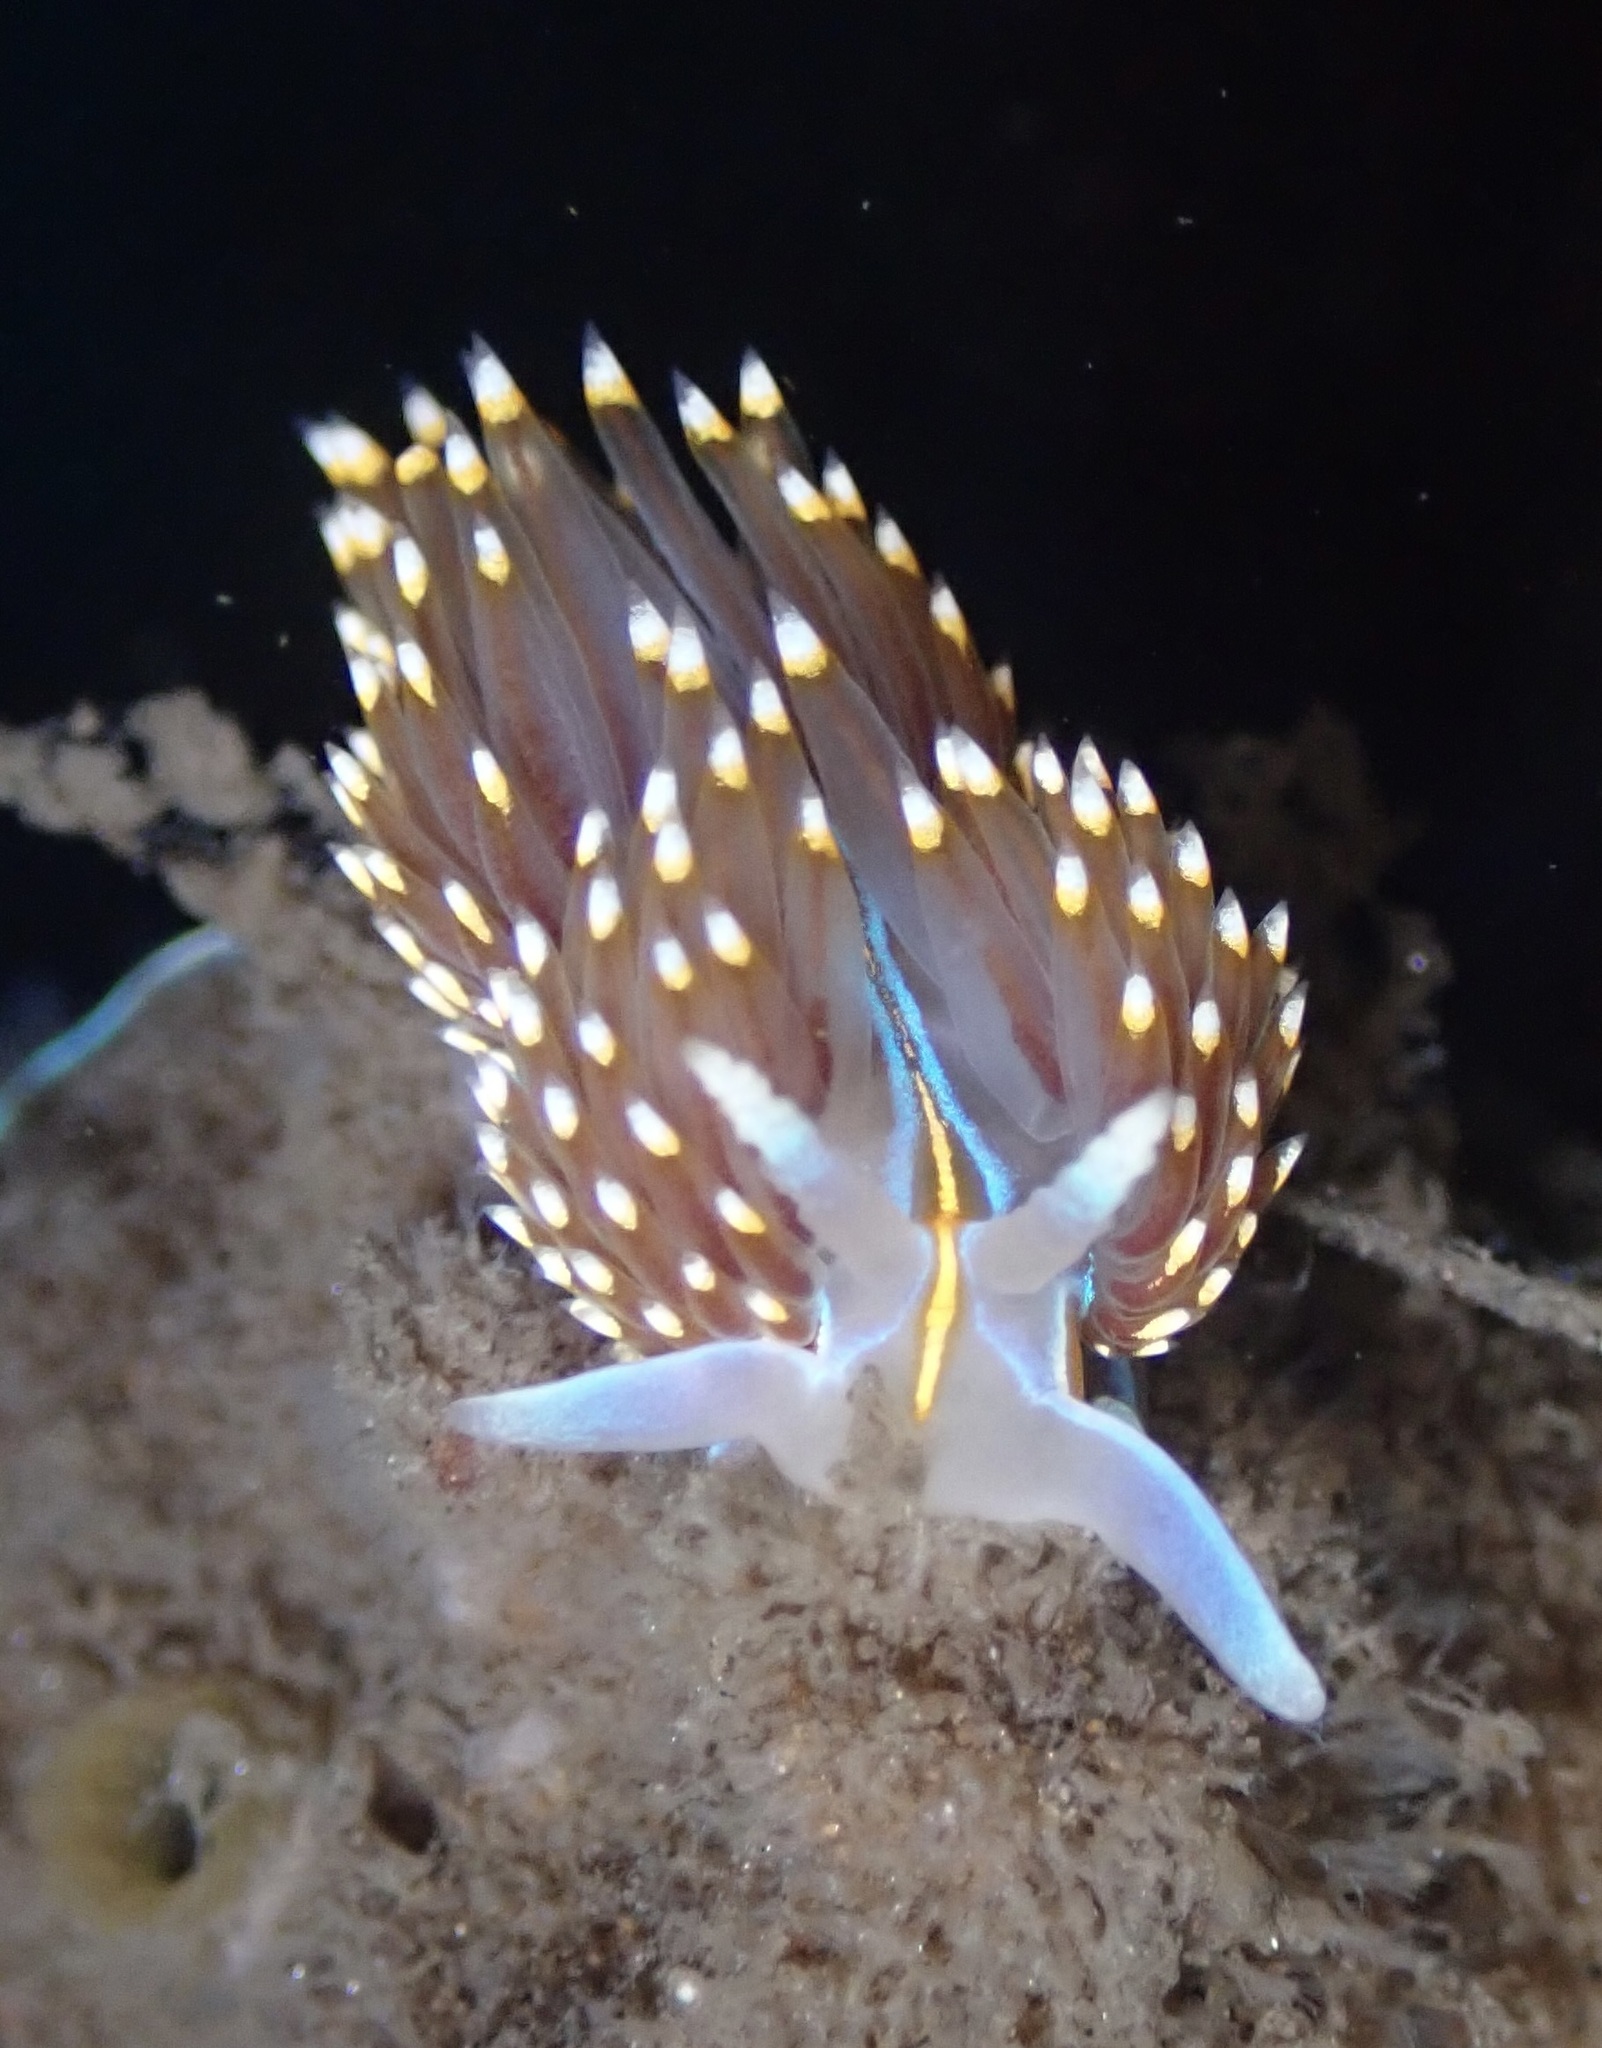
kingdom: Animalia
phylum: Mollusca
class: Gastropoda
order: Nudibranchia
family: Myrrhinidae
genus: Hermissenda
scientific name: Hermissenda opalescens
